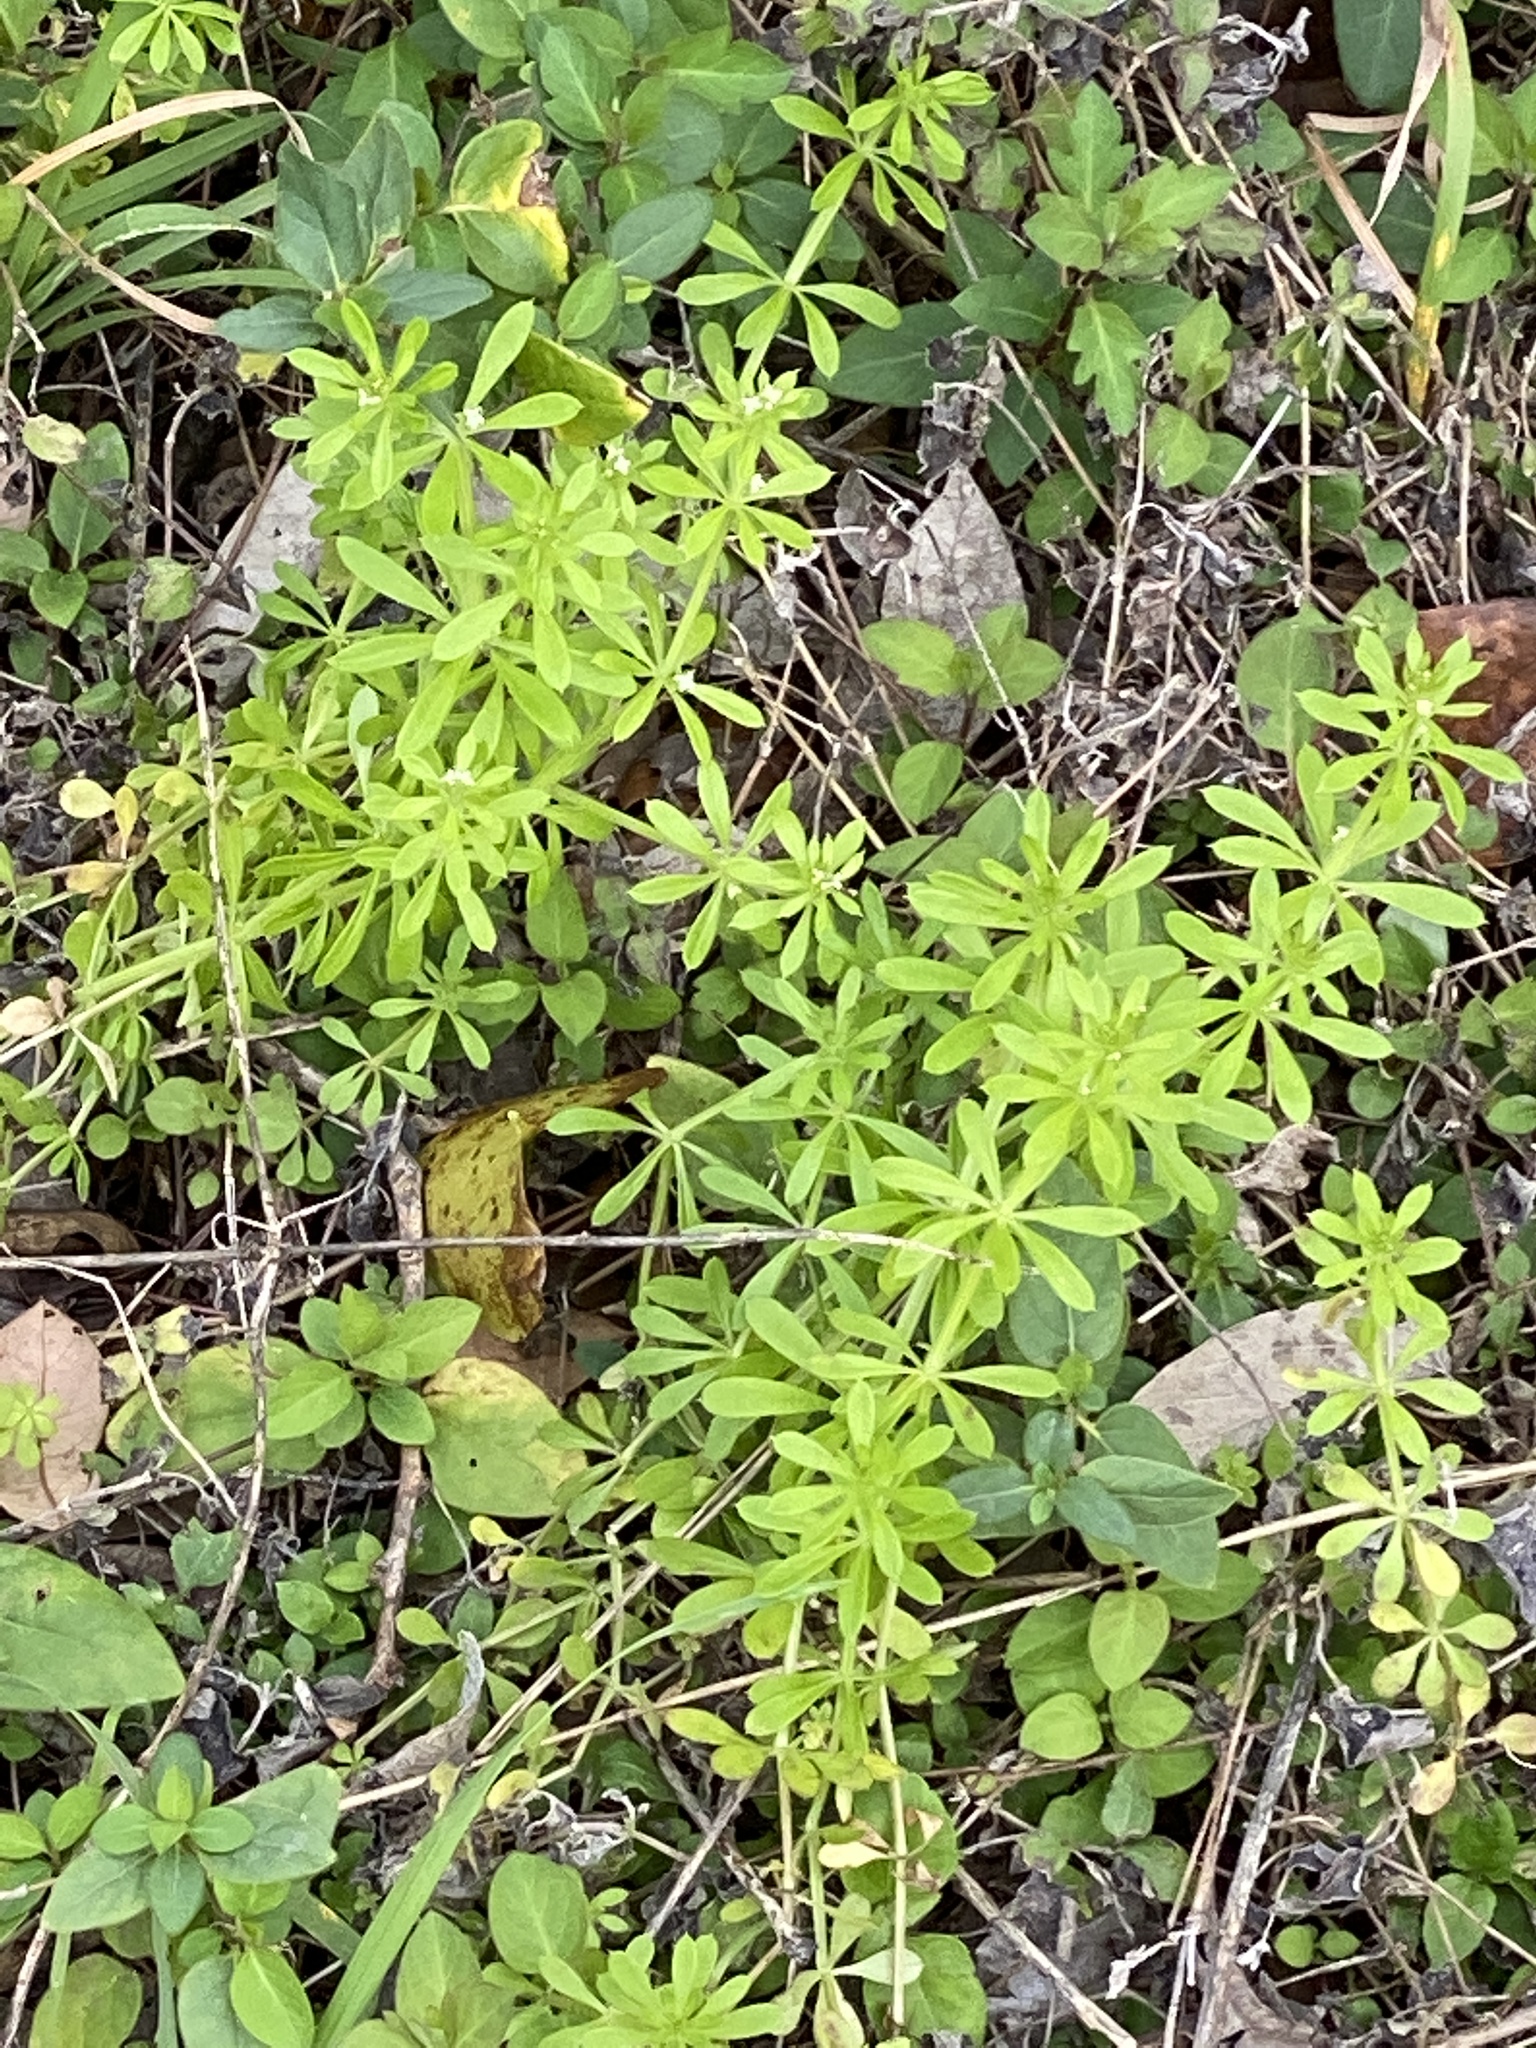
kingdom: Plantae
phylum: Tracheophyta
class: Magnoliopsida
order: Gentianales
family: Rubiaceae
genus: Galium
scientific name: Galium aparine
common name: Cleavers
